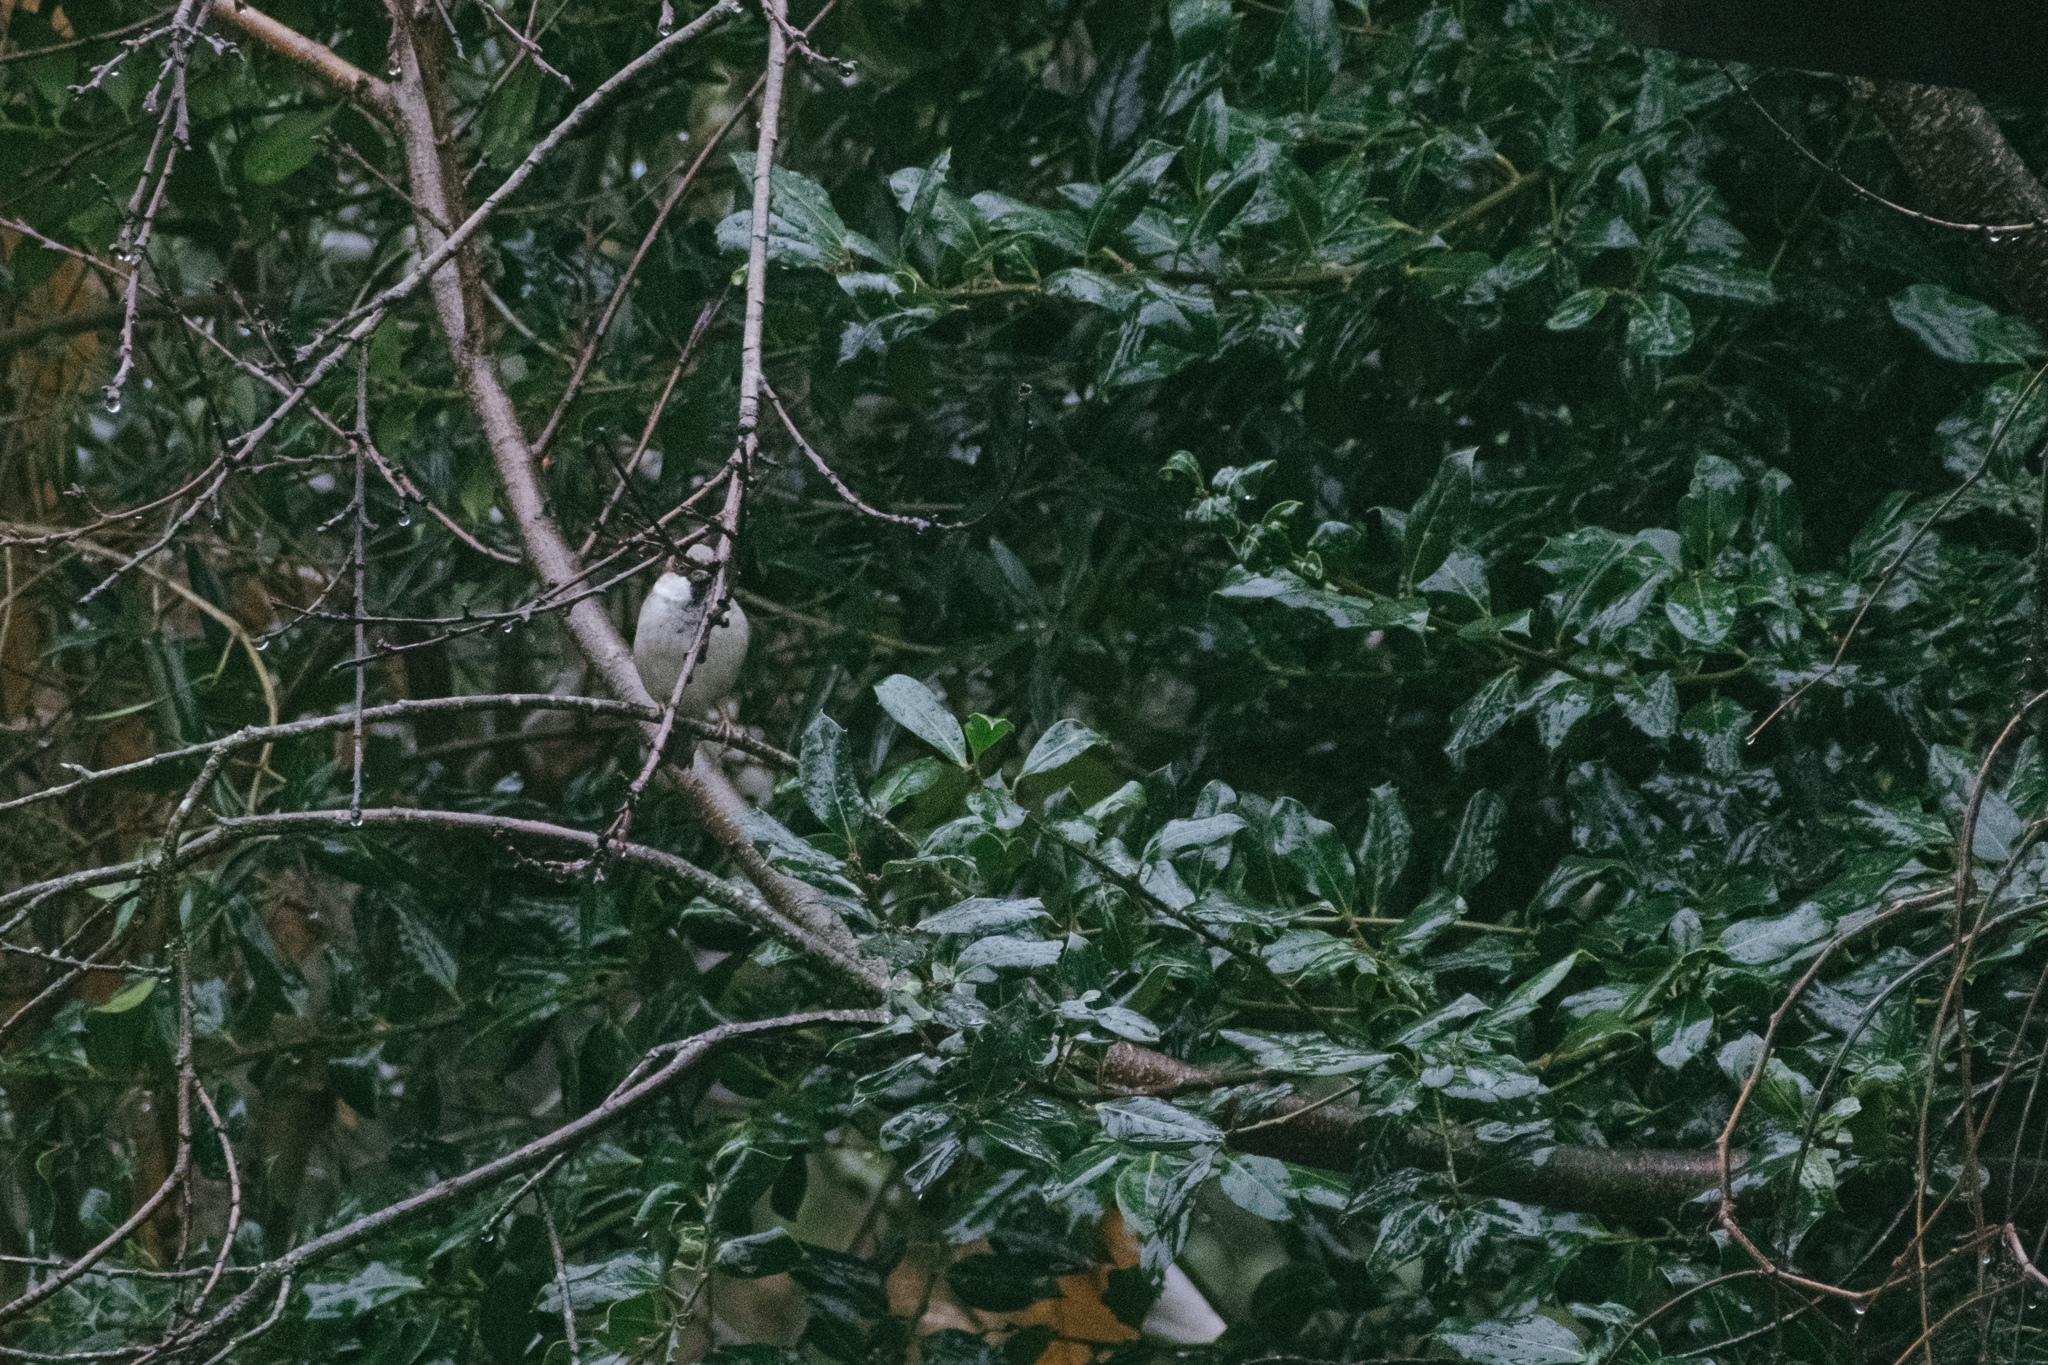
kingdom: Animalia
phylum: Chordata
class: Aves
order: Passeriformes
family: Passeridae
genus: Passer
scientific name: Passer domesticus
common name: House sparrow
